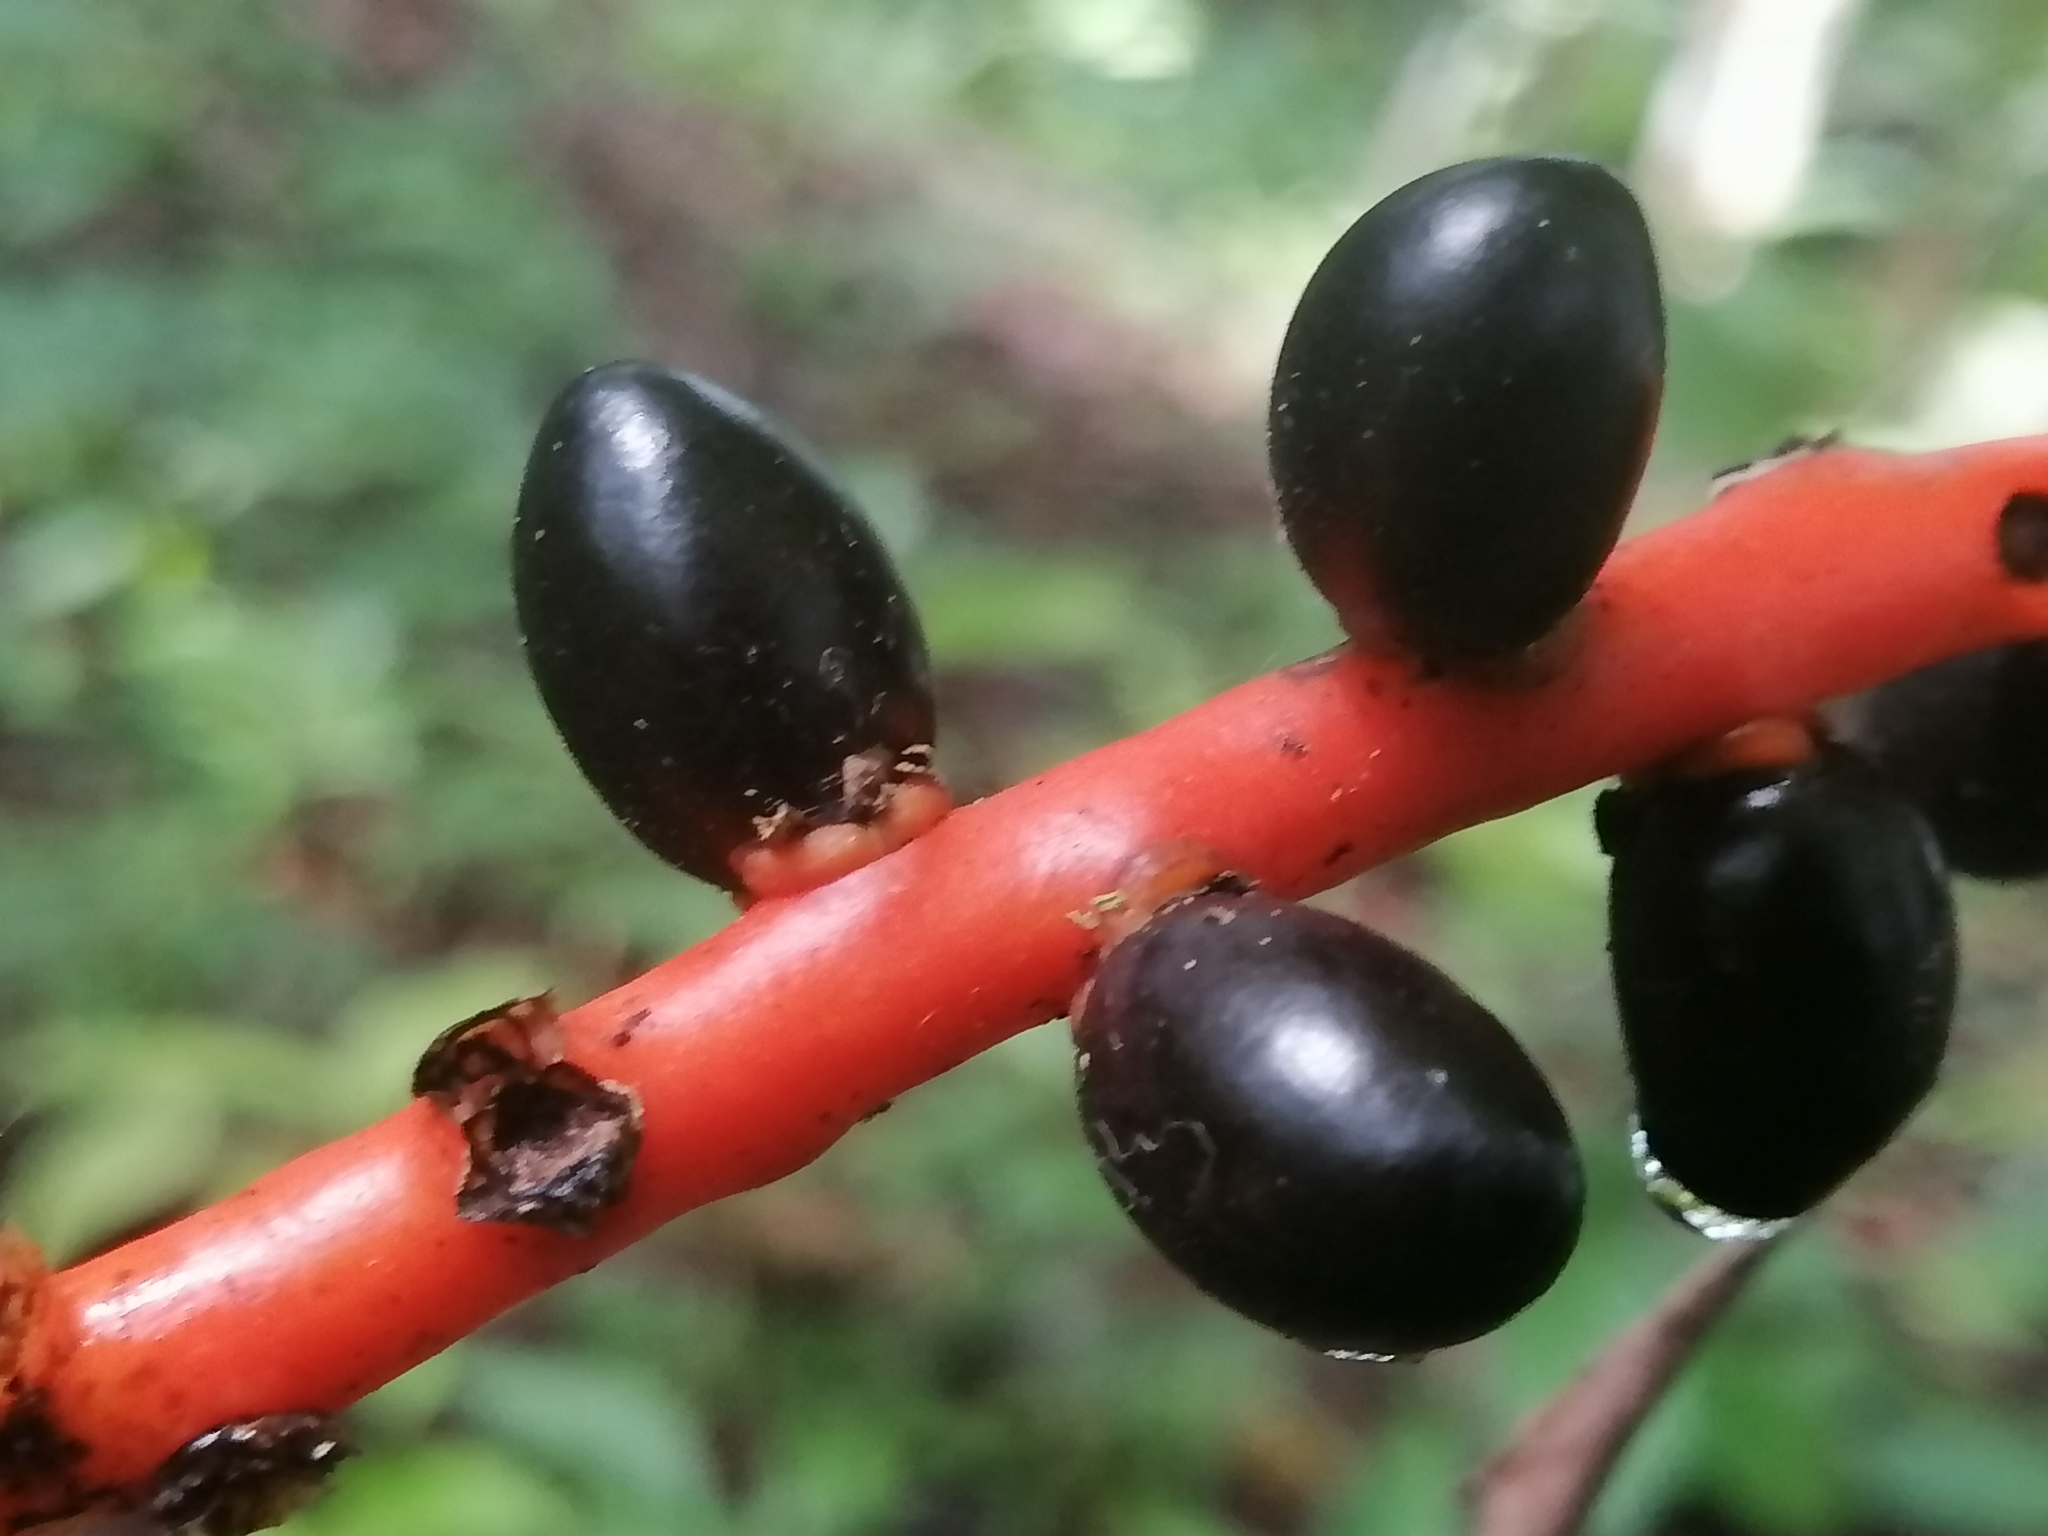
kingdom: Plantae
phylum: Tracheophyta
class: Liliopsida
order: Arecales
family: Arecaceae
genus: Chamaedorea
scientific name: Chamaedorea ernesti-augusti
